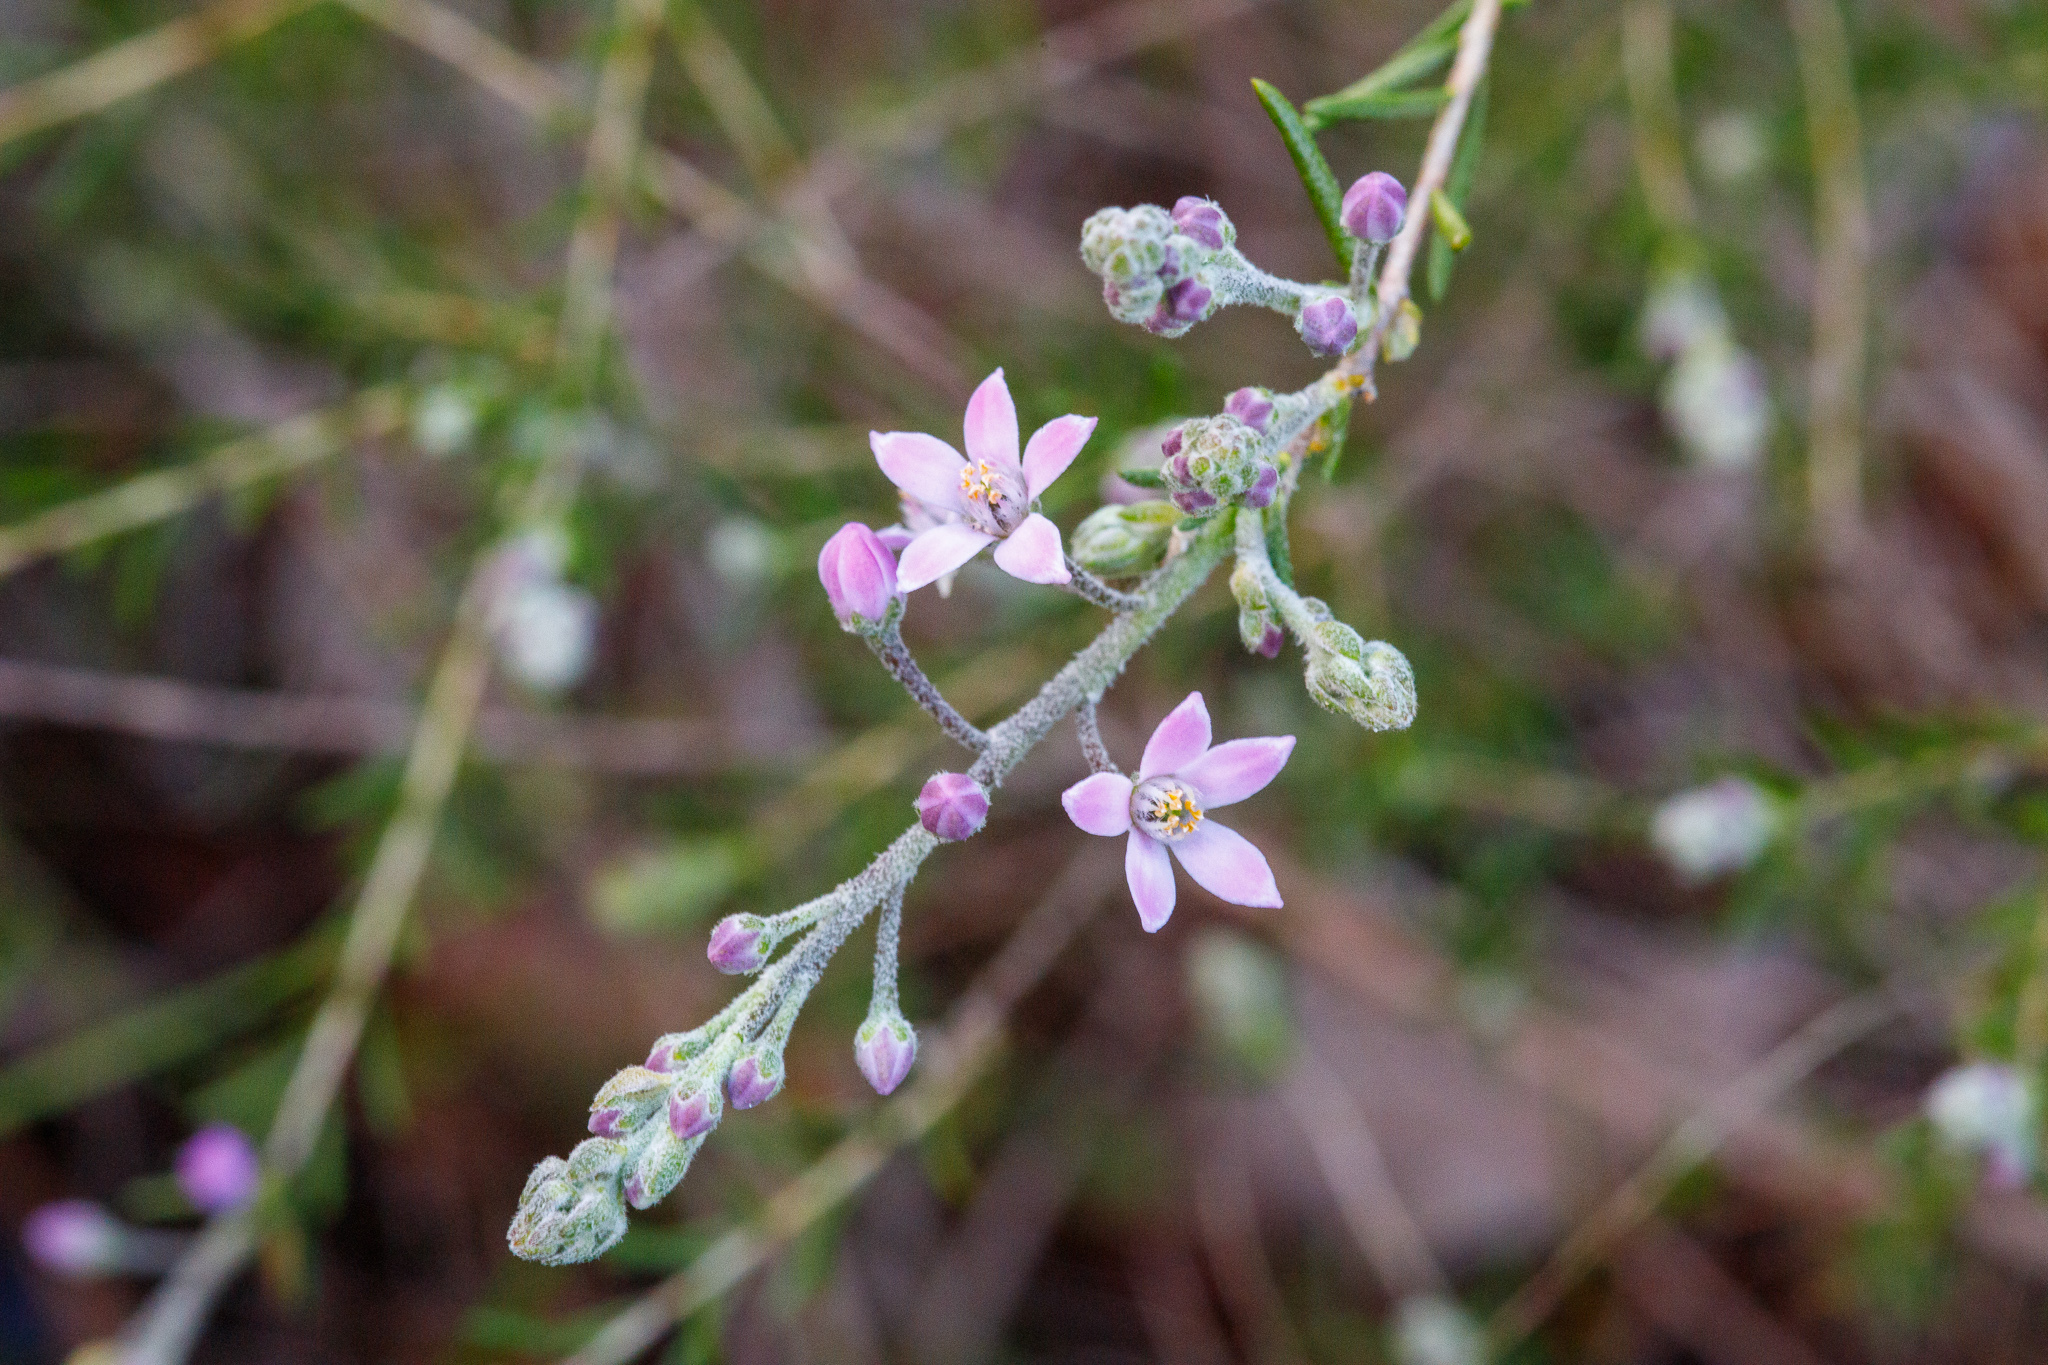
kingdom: Plantae
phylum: Tracheophyta
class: Magnoliopsida
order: Sapindales
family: Rutaceae
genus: Philotheca
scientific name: Philotheca spicata
